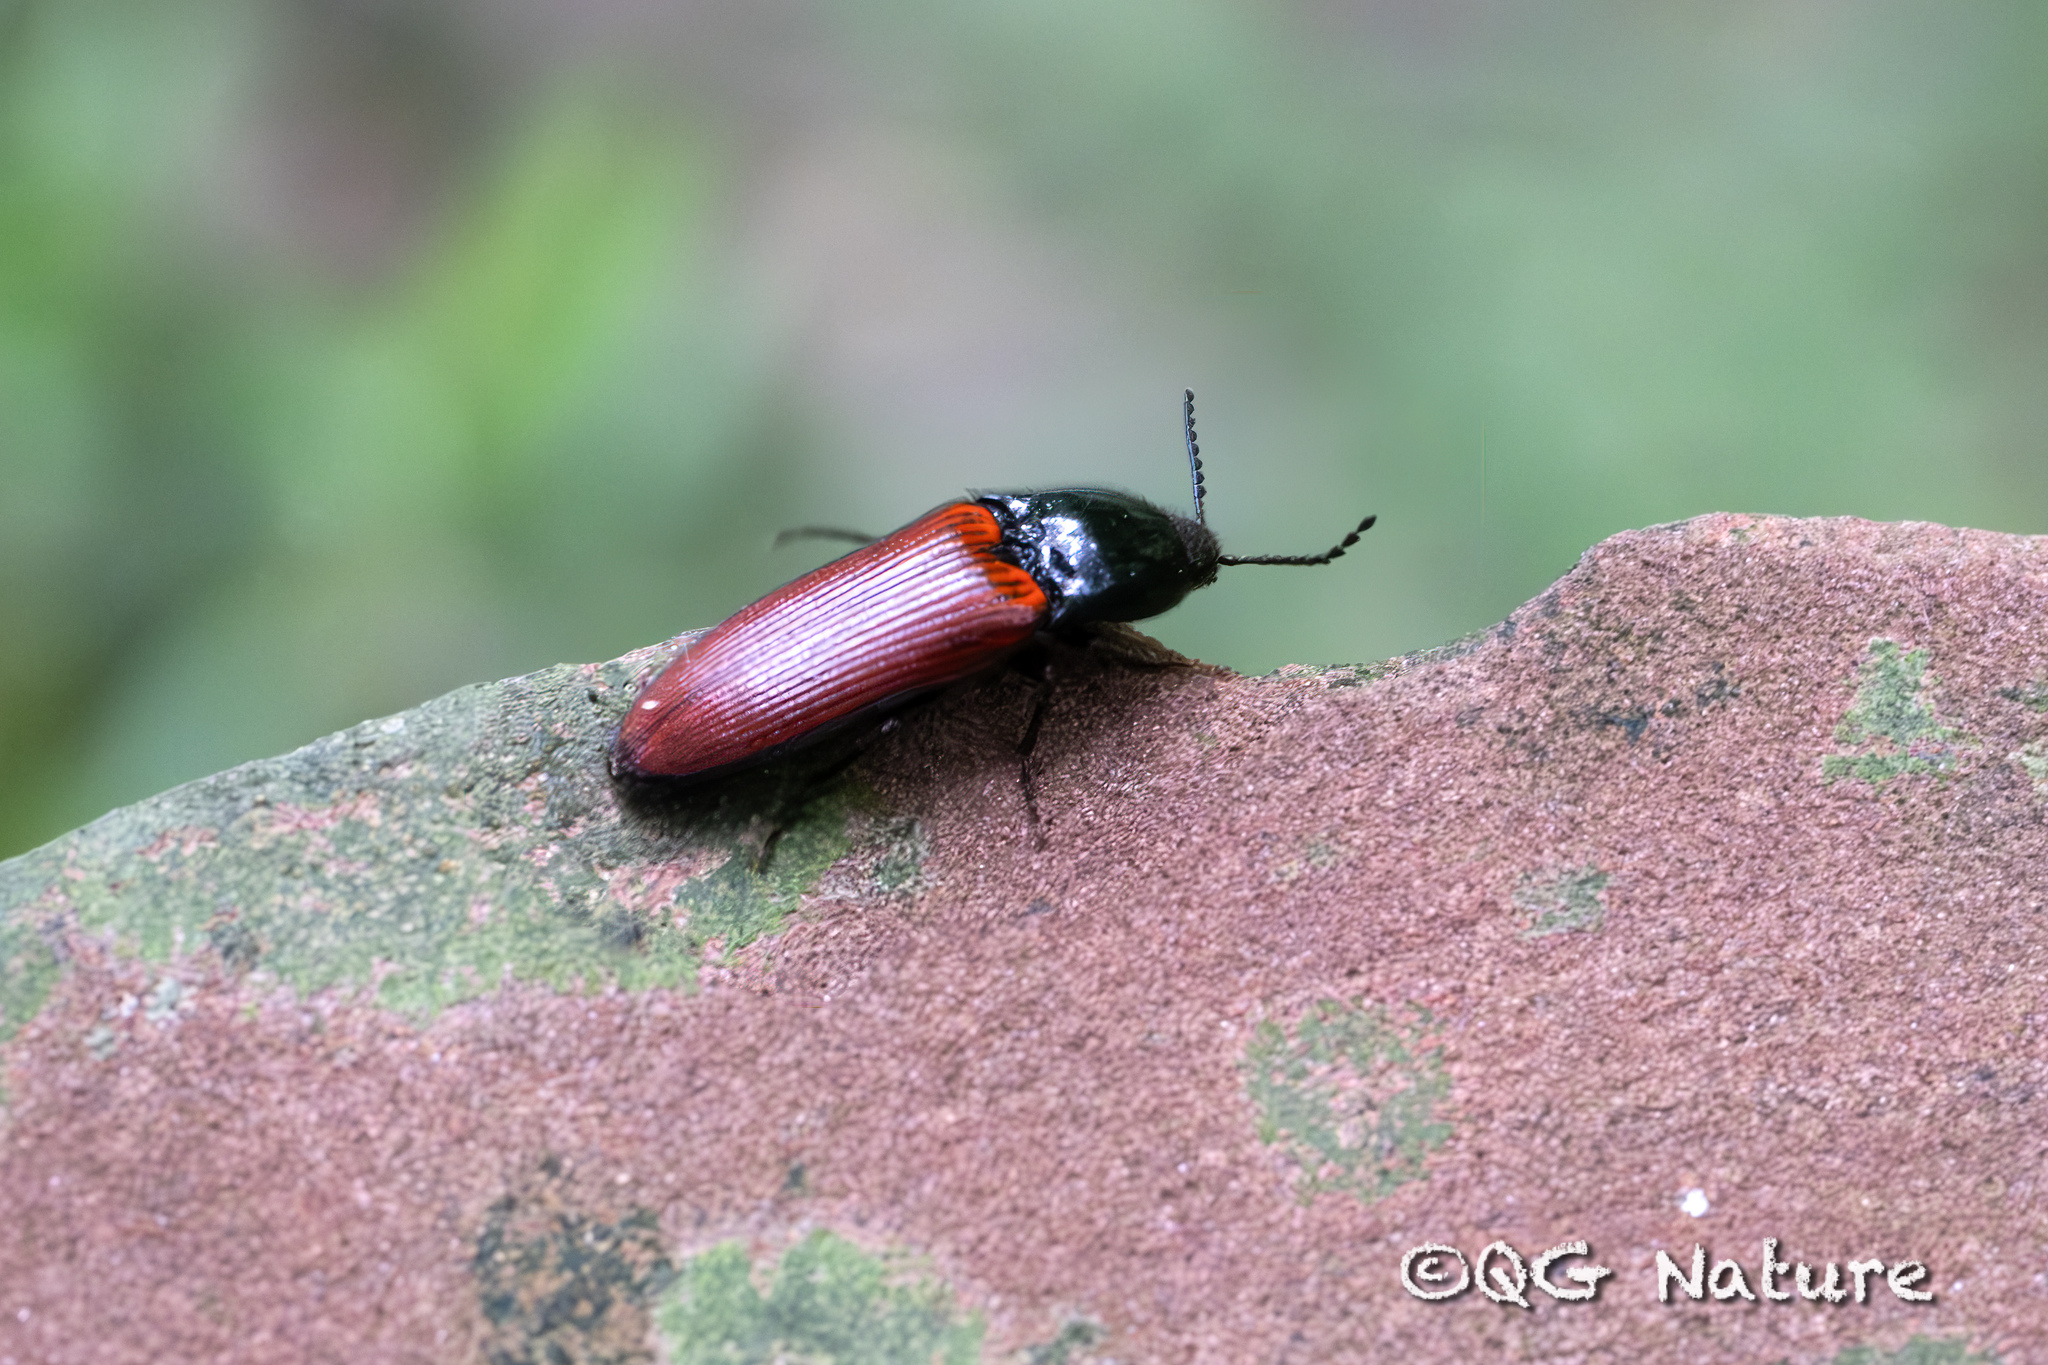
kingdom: Animalia
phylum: Arthropoda
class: Insecta
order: Coleoptera
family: Elateridae
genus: Ampedus
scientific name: Ampedus sanguinolentus
